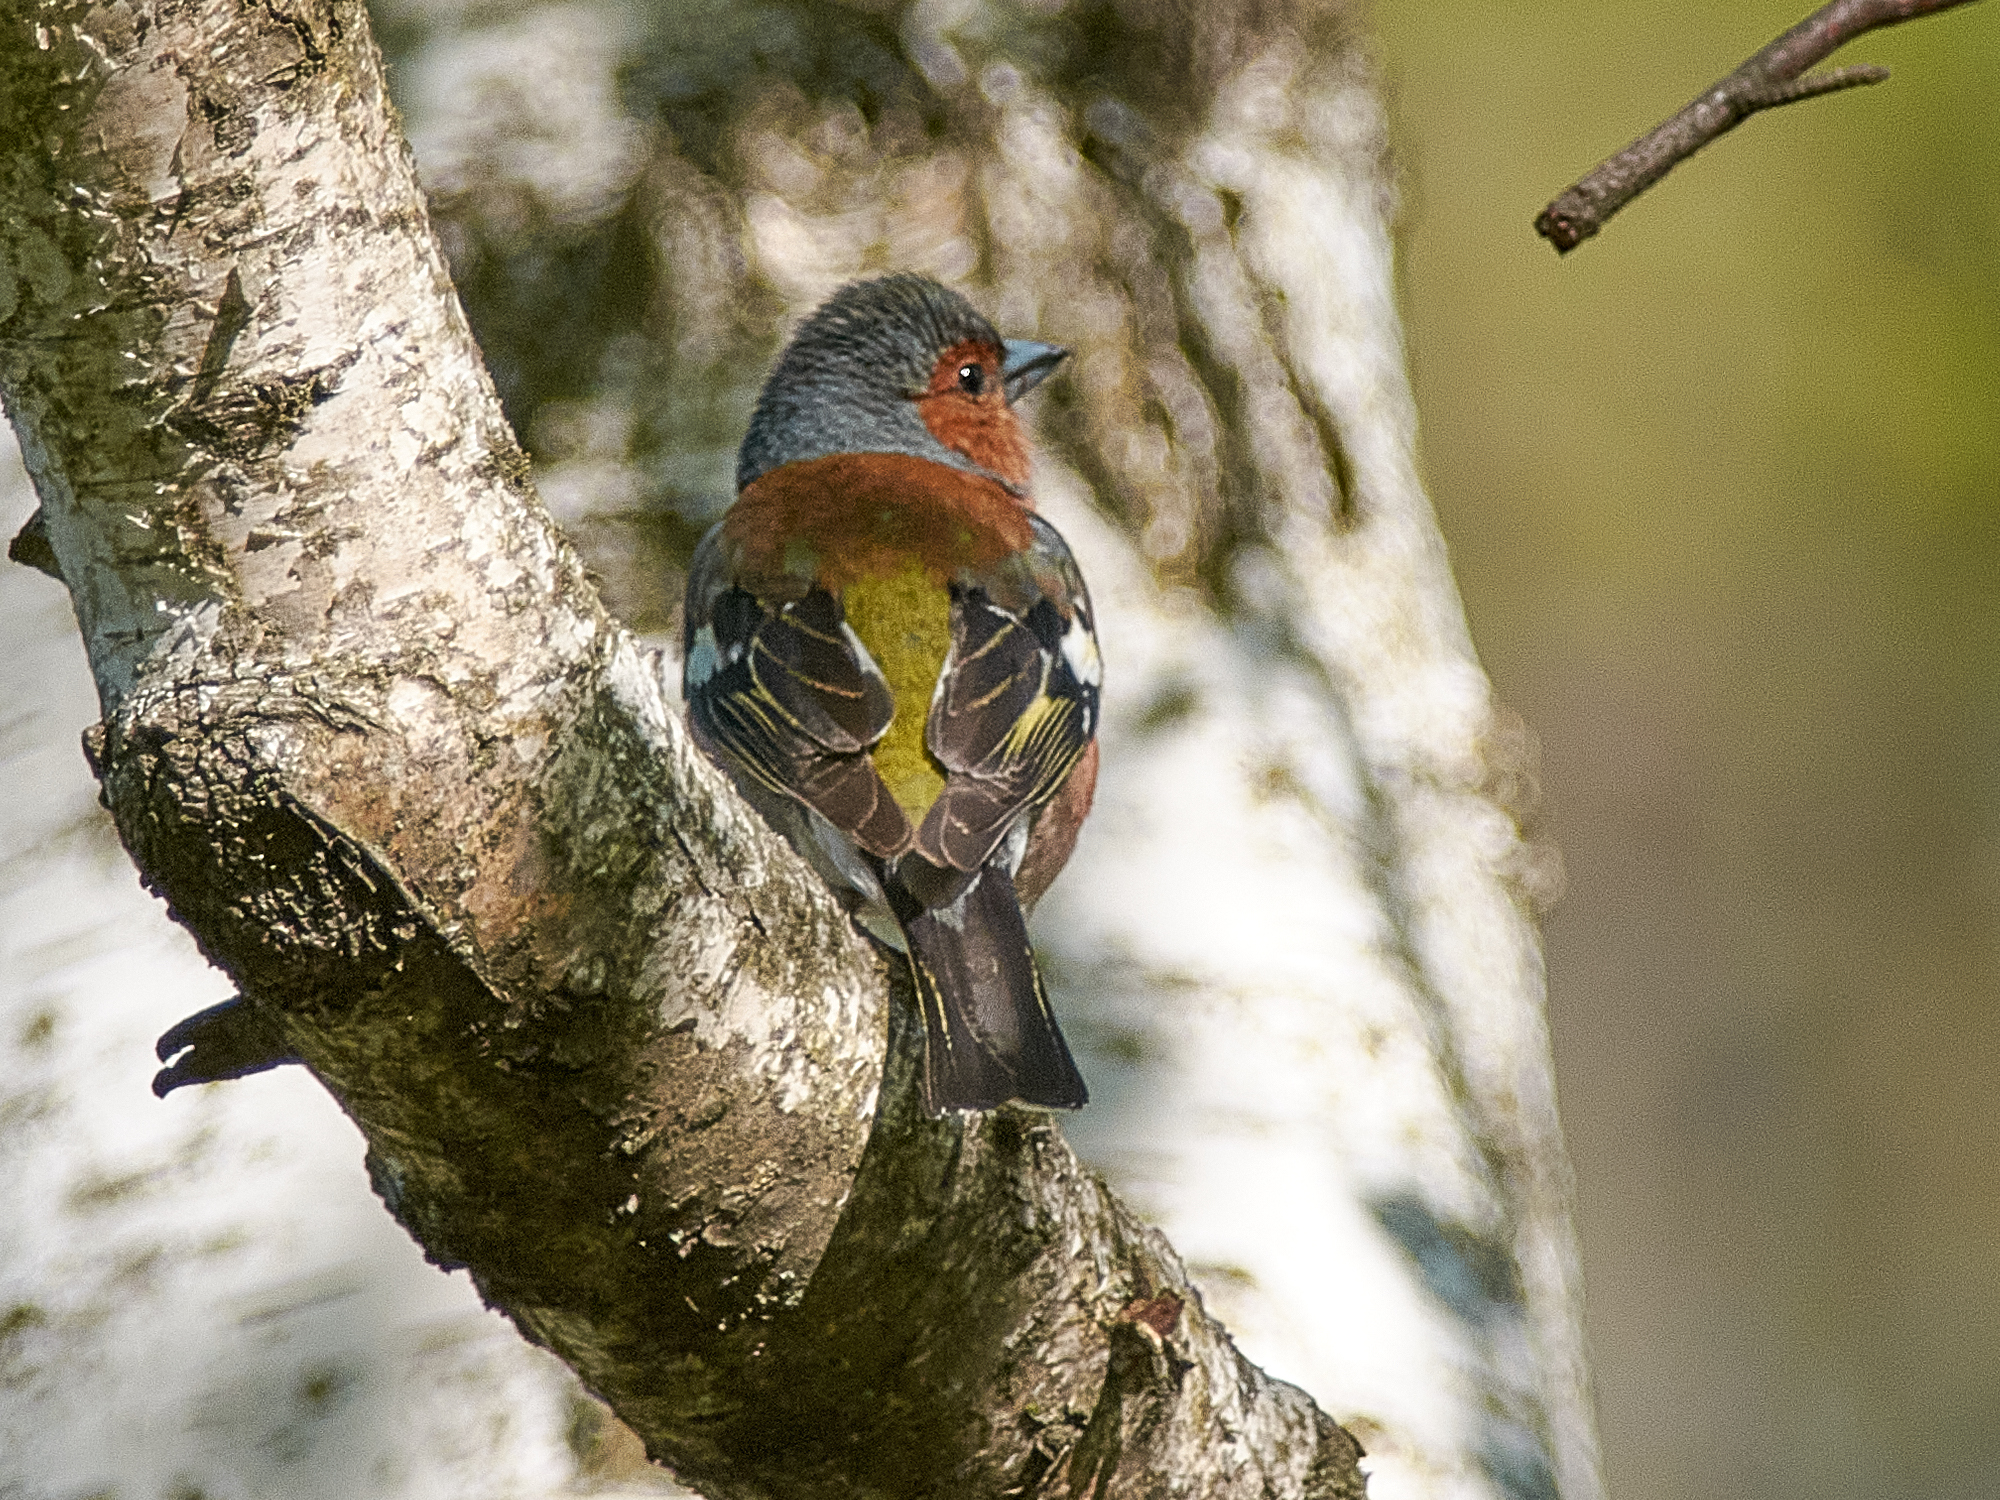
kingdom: Animalia
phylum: Chordata
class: Aves
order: Passeriformes
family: Fringillidae
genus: Fringilla
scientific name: Fringilla coelebs
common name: Common chaffinch
